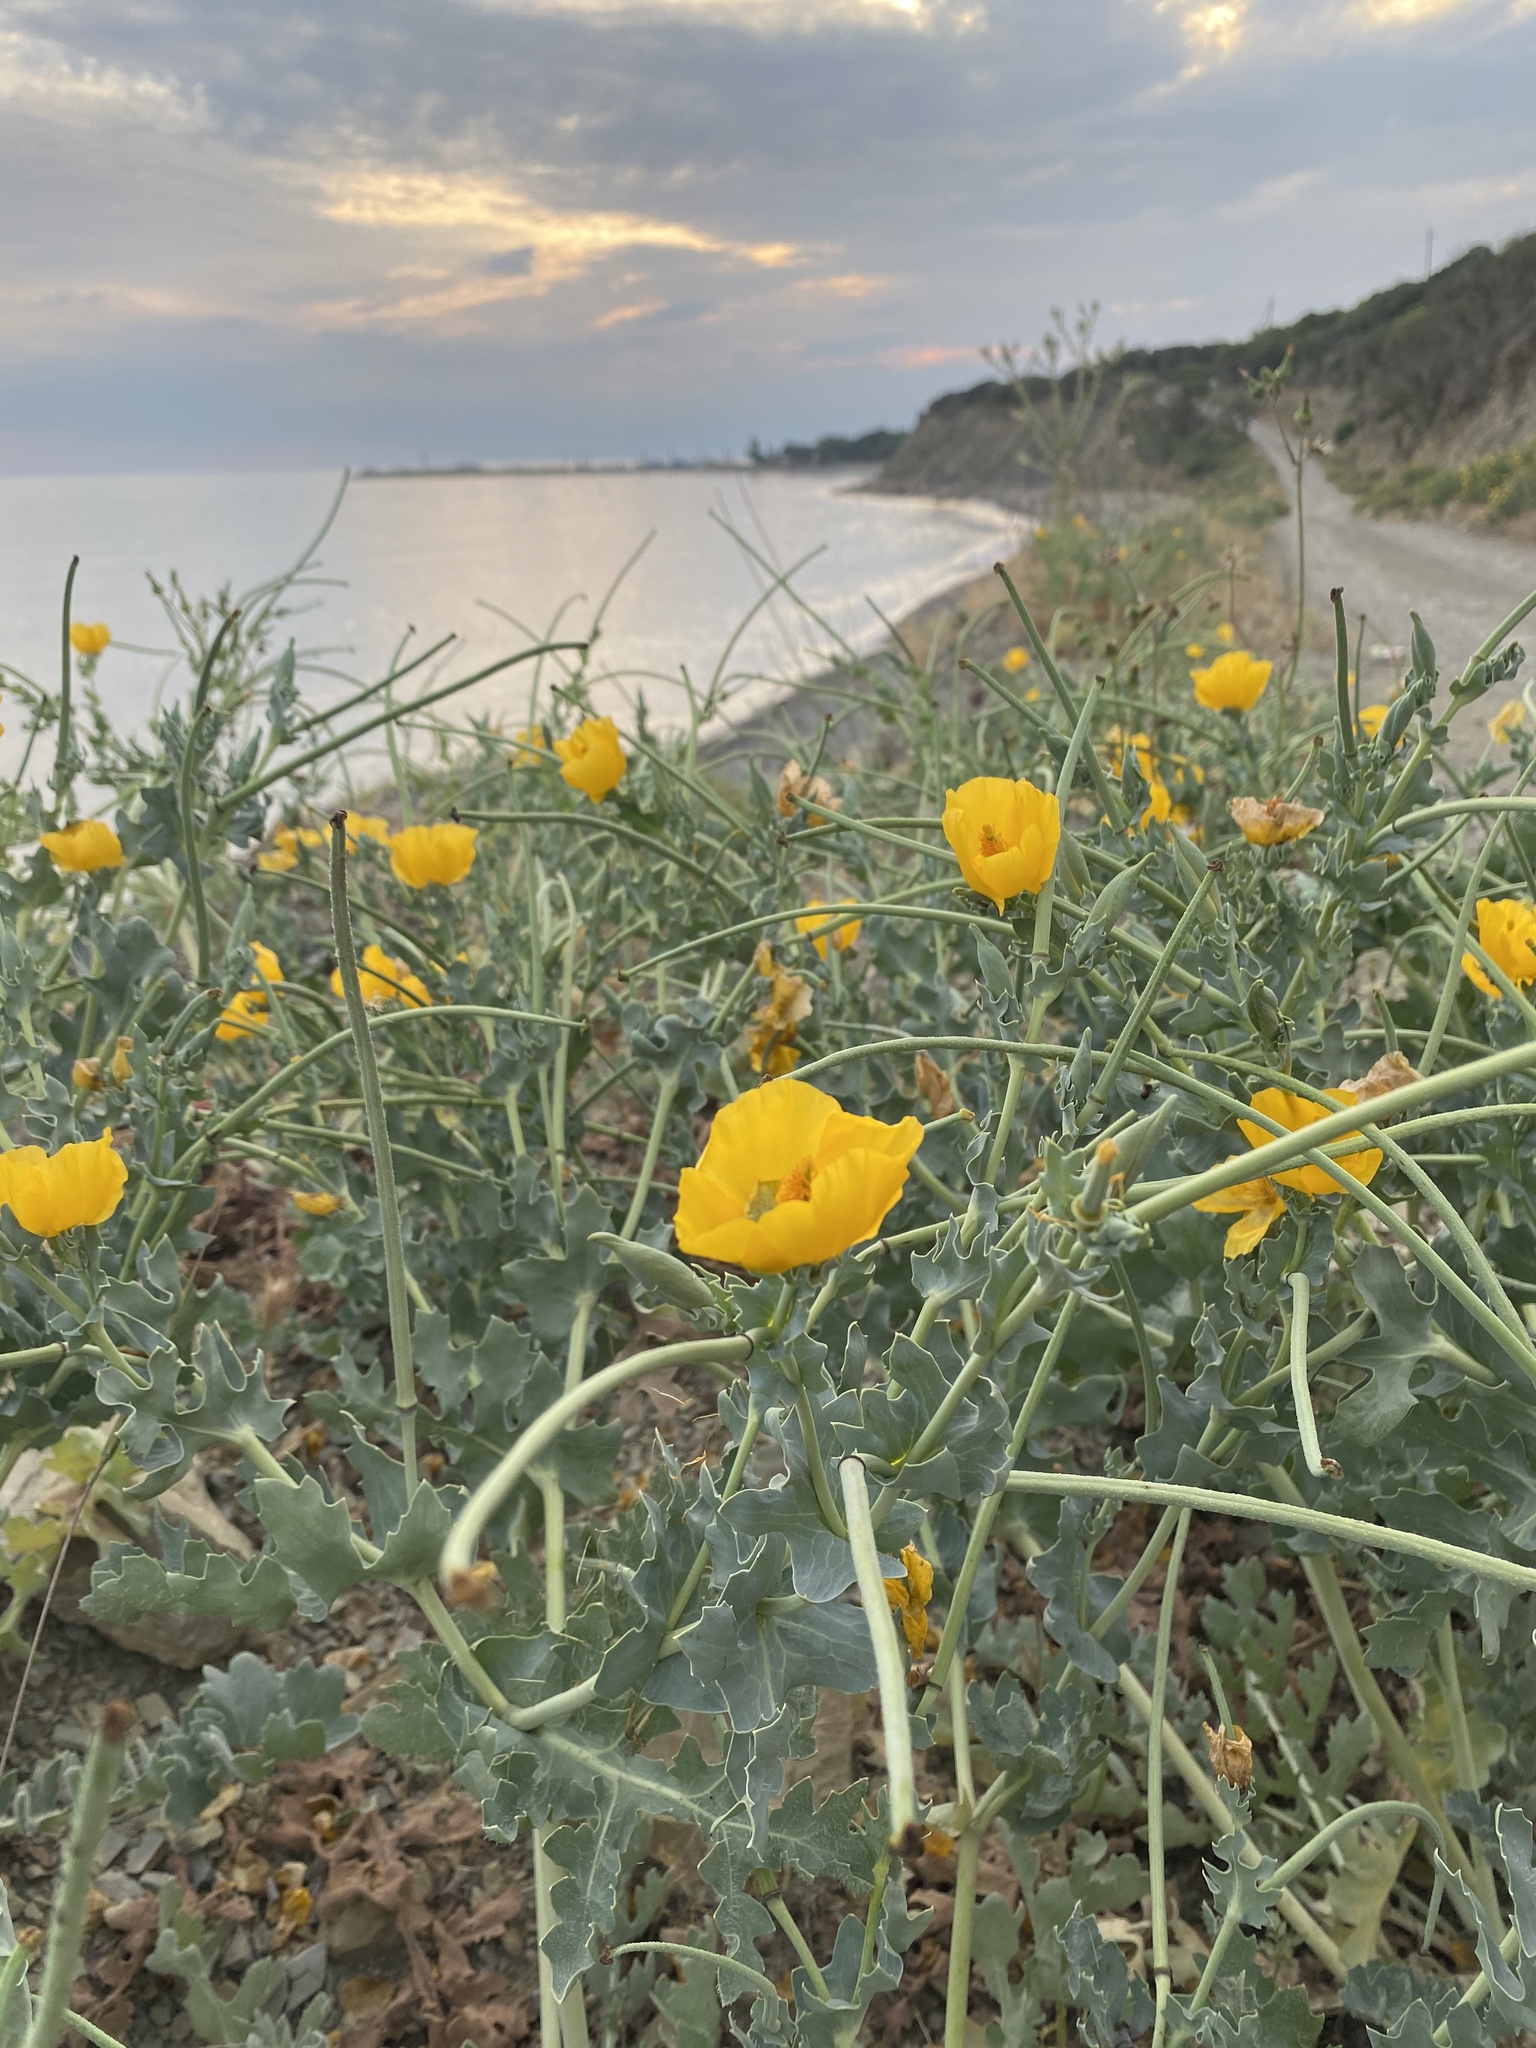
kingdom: Plantae
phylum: Tracheophyta
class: Magnoliopsida
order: Ranunculales
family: Papaveraceae
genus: Glaucium
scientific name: Glaucium flavum
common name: Yellow horned-poppy
